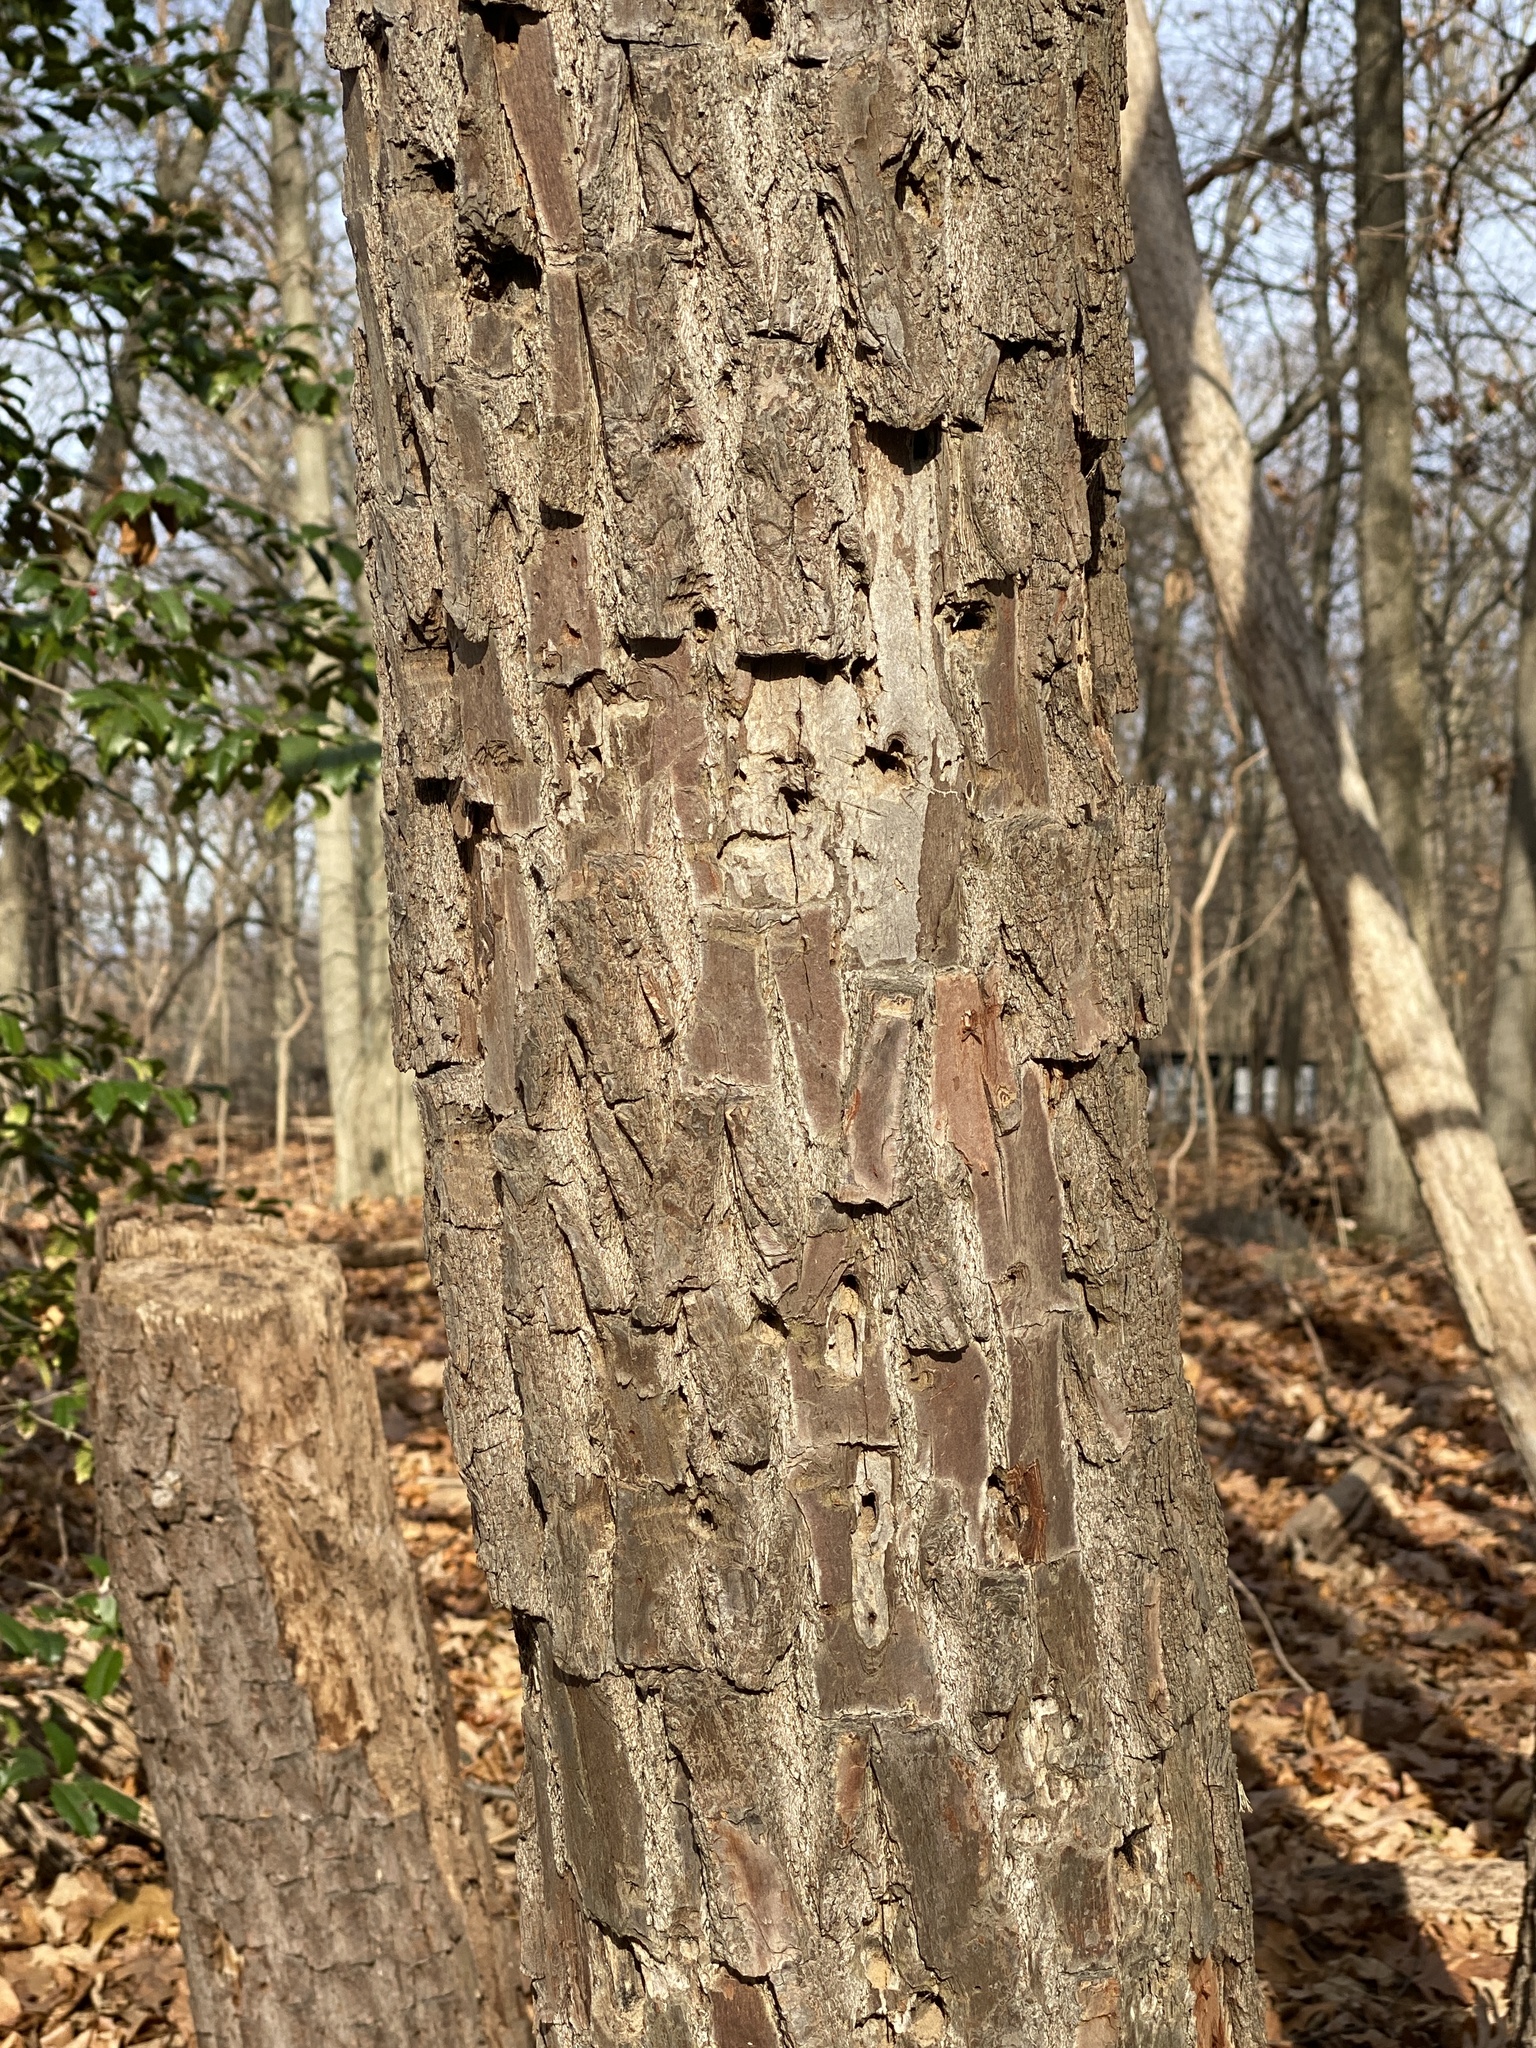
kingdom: Plantae
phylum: Tracheophyta
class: Magnoliopsida
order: Laurales
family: Lauraceae
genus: Sassafras
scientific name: Sassafras albidum
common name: Sassafras
